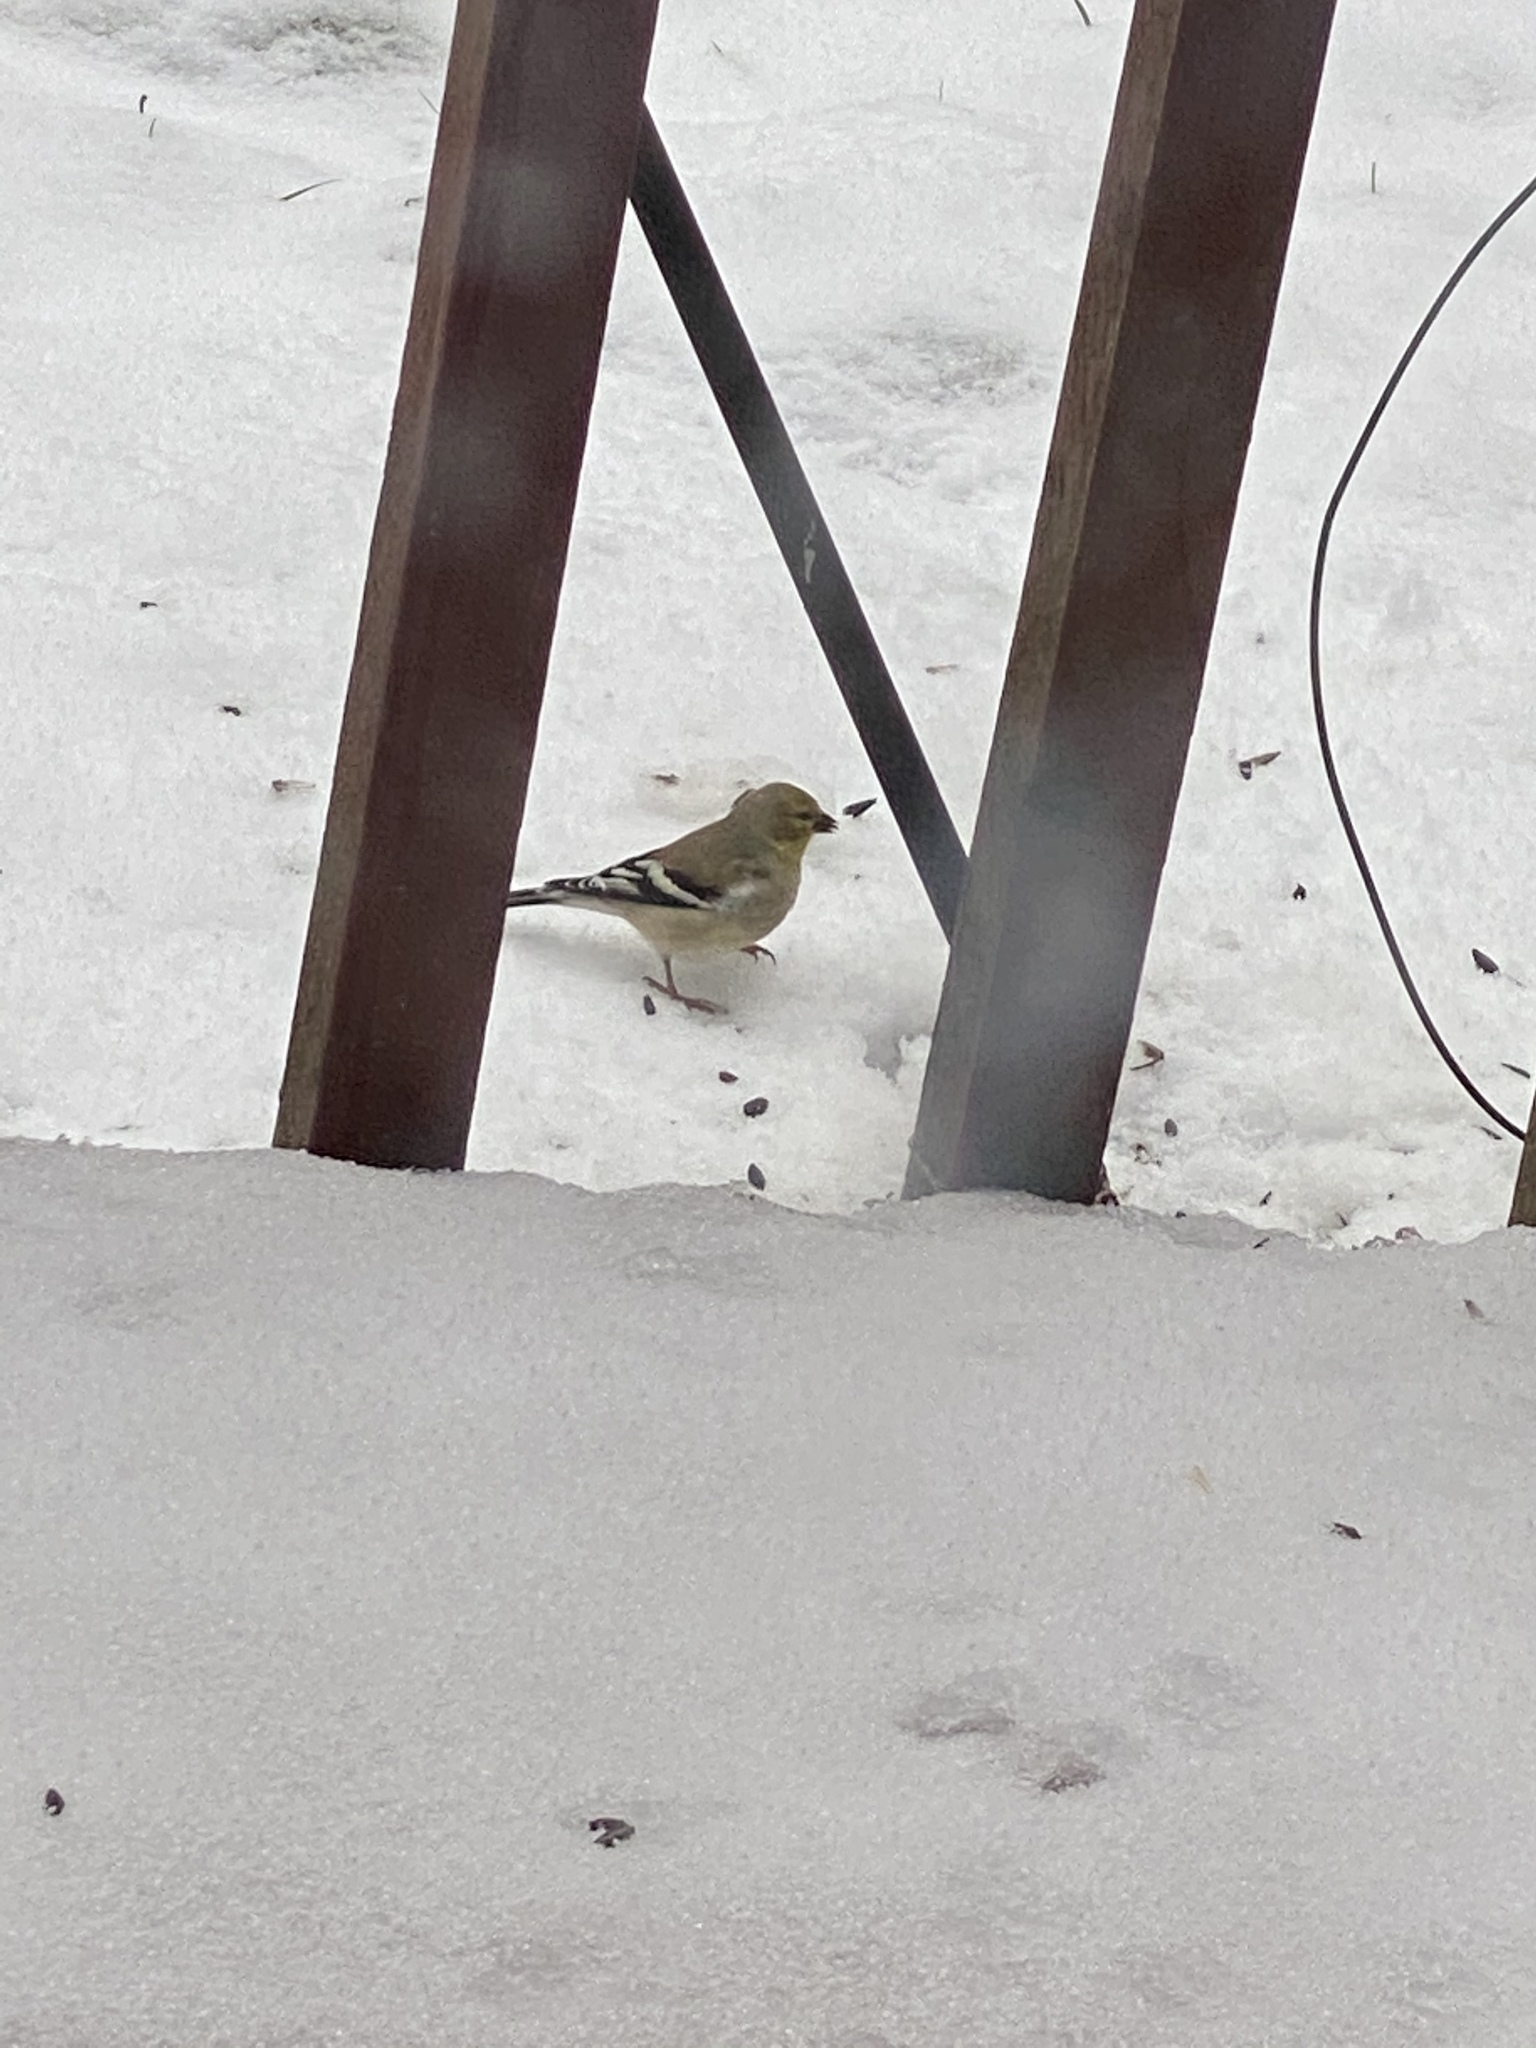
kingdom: Animalia
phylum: Chordata
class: Aves
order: Passeriformes
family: Fringillidae
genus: Spinus
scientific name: Spinus tristis
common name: American goldfinch
